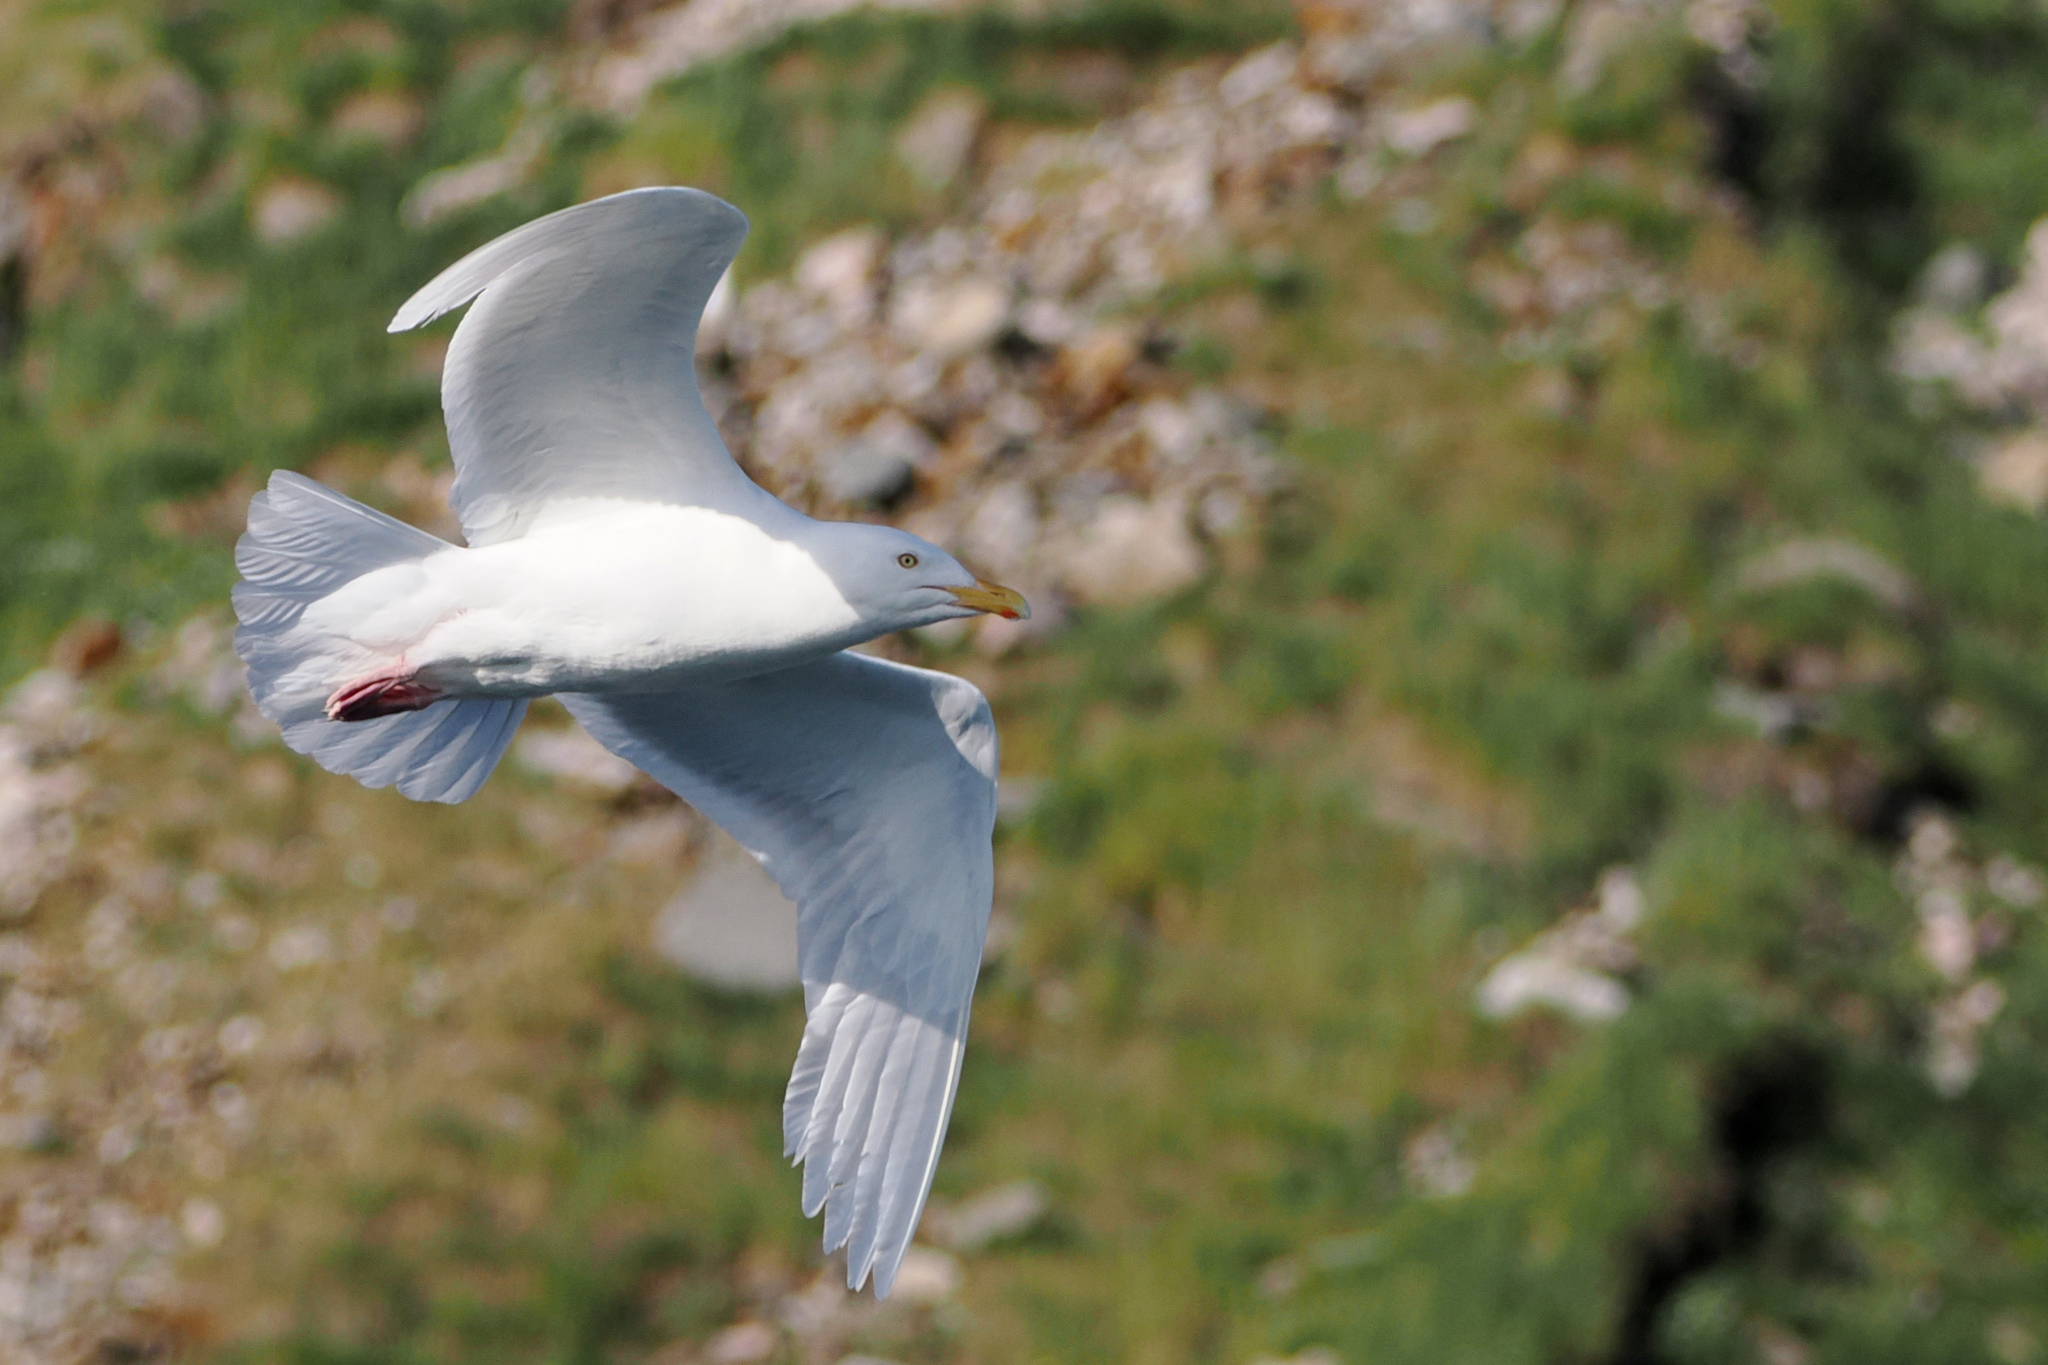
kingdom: Animalia
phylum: Chordata
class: Aves
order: Charadriiformes
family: Laridae
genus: Larus
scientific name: Larus hyperboreus
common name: Glaucous gull
